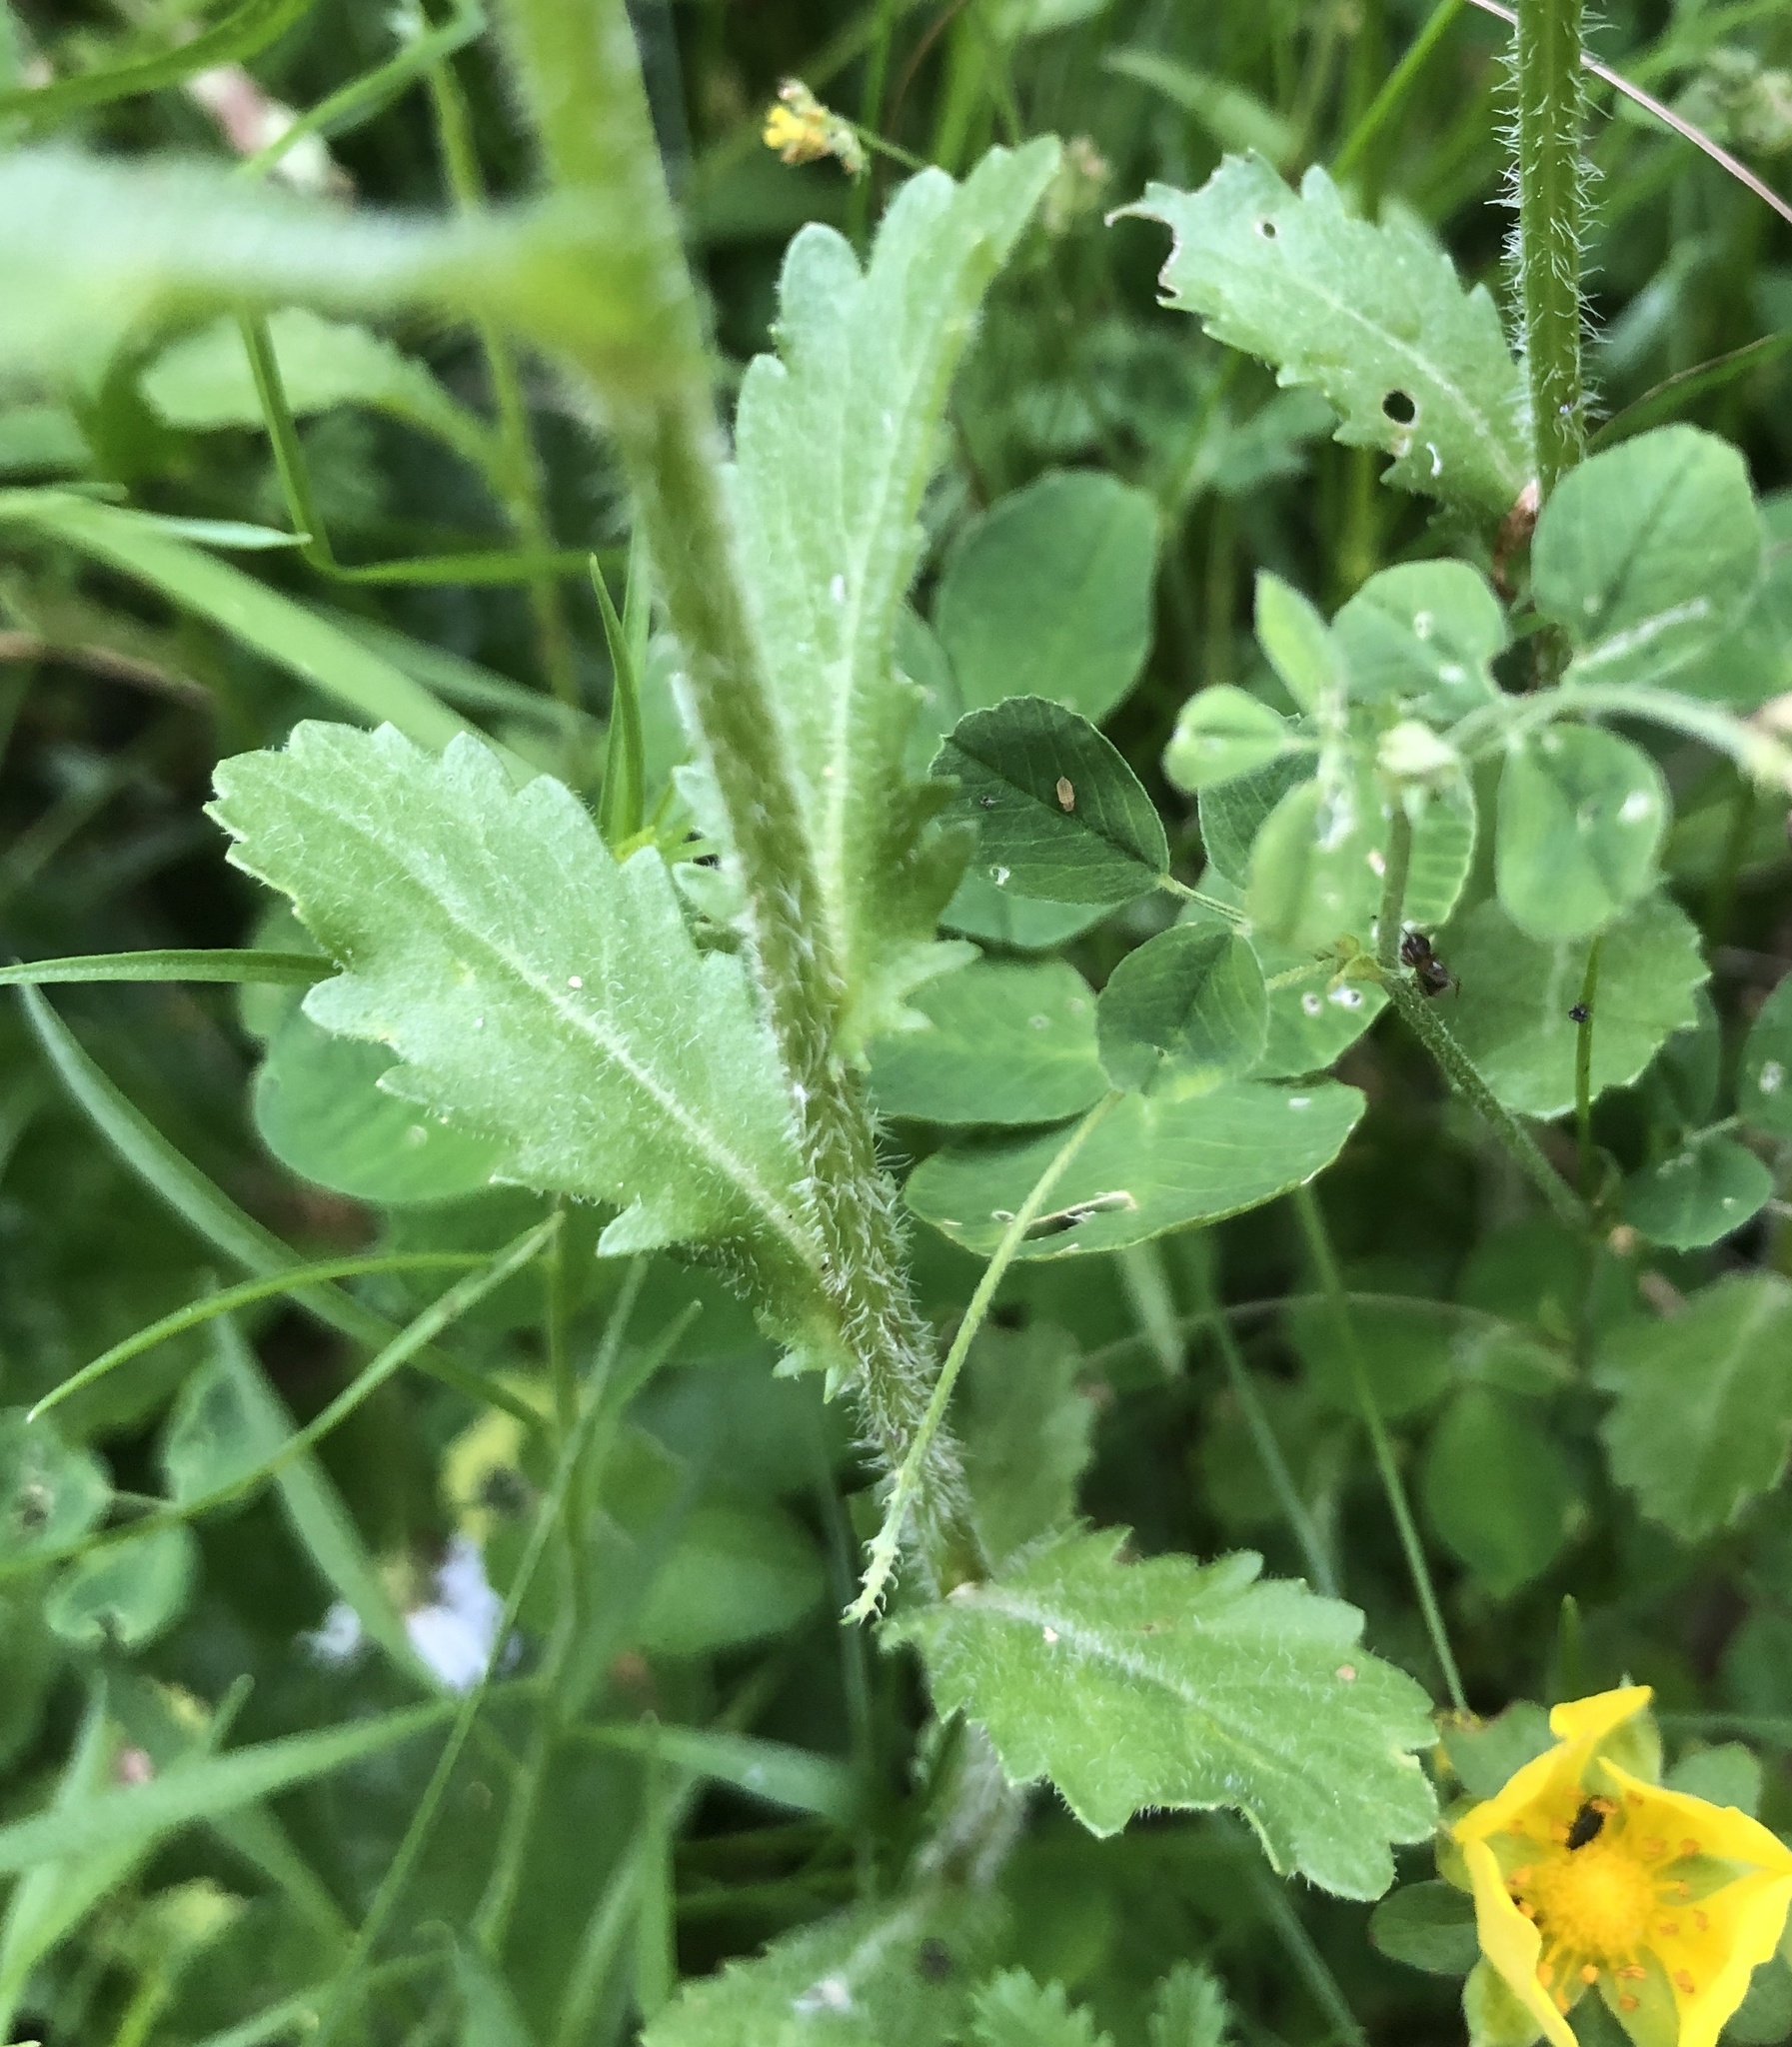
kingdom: Plantae
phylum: Tracheophyta
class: Magnoliopsida
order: Asterales
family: Asteraceae
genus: Leucanthemum
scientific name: Leucanthemum vulgare
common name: Oxeye daisy
